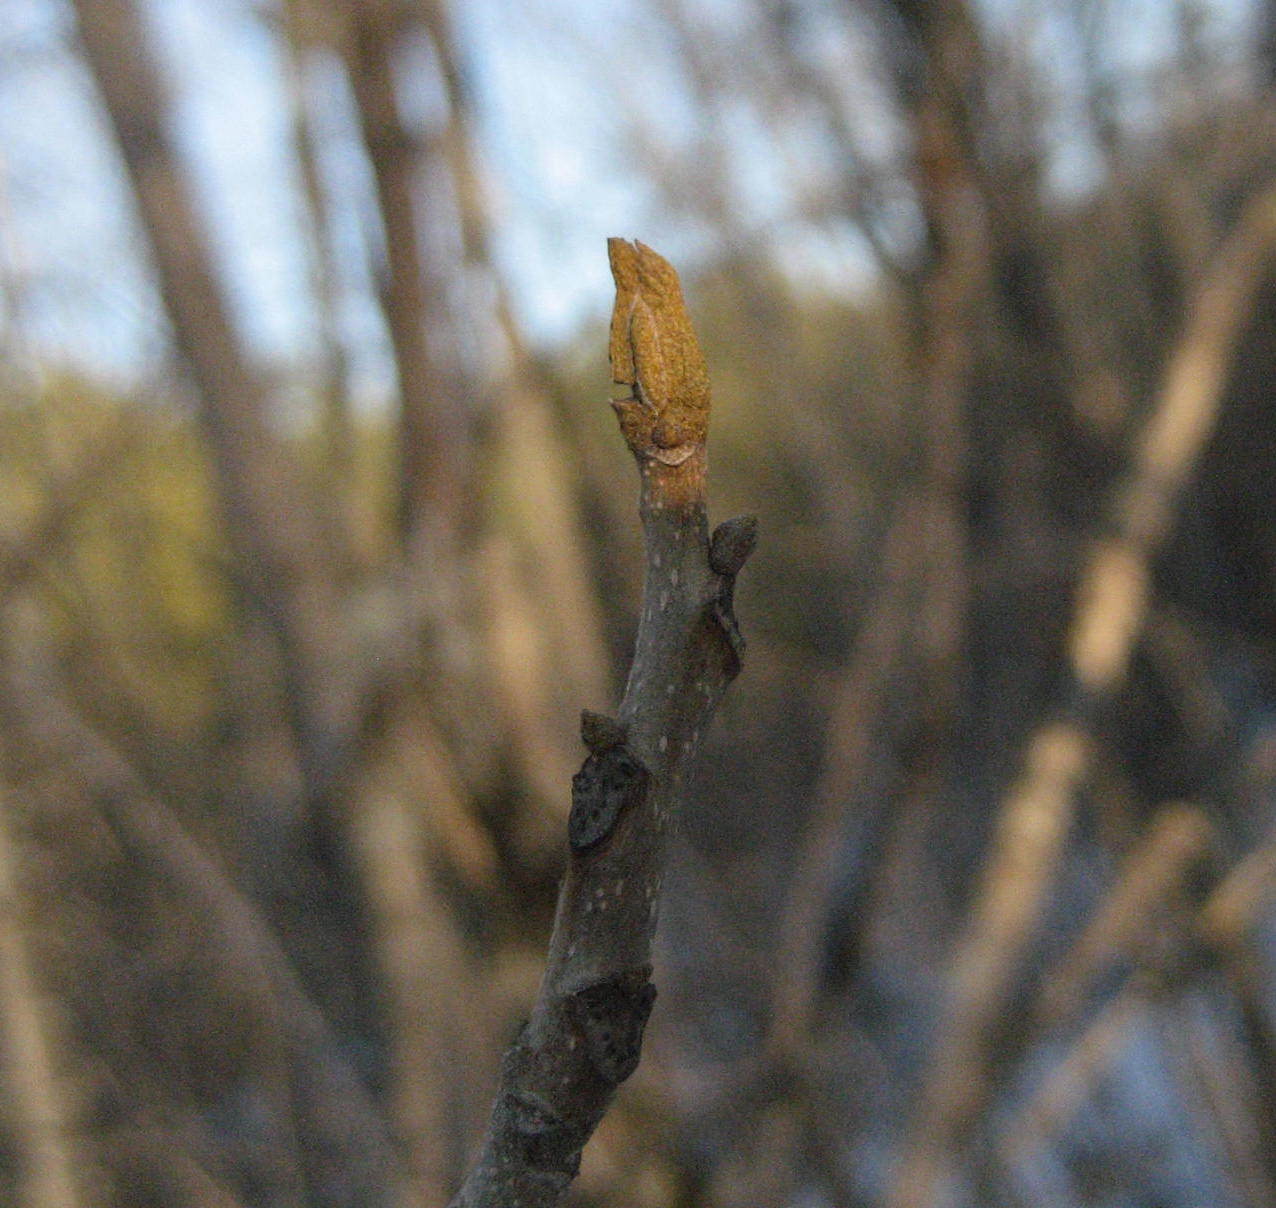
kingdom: Plantae
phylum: Tracheophyta
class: Magnoliopsida
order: Fagales
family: Juglandaceae
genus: Carya
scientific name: Carya cordiformis
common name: Bitternut hickory
